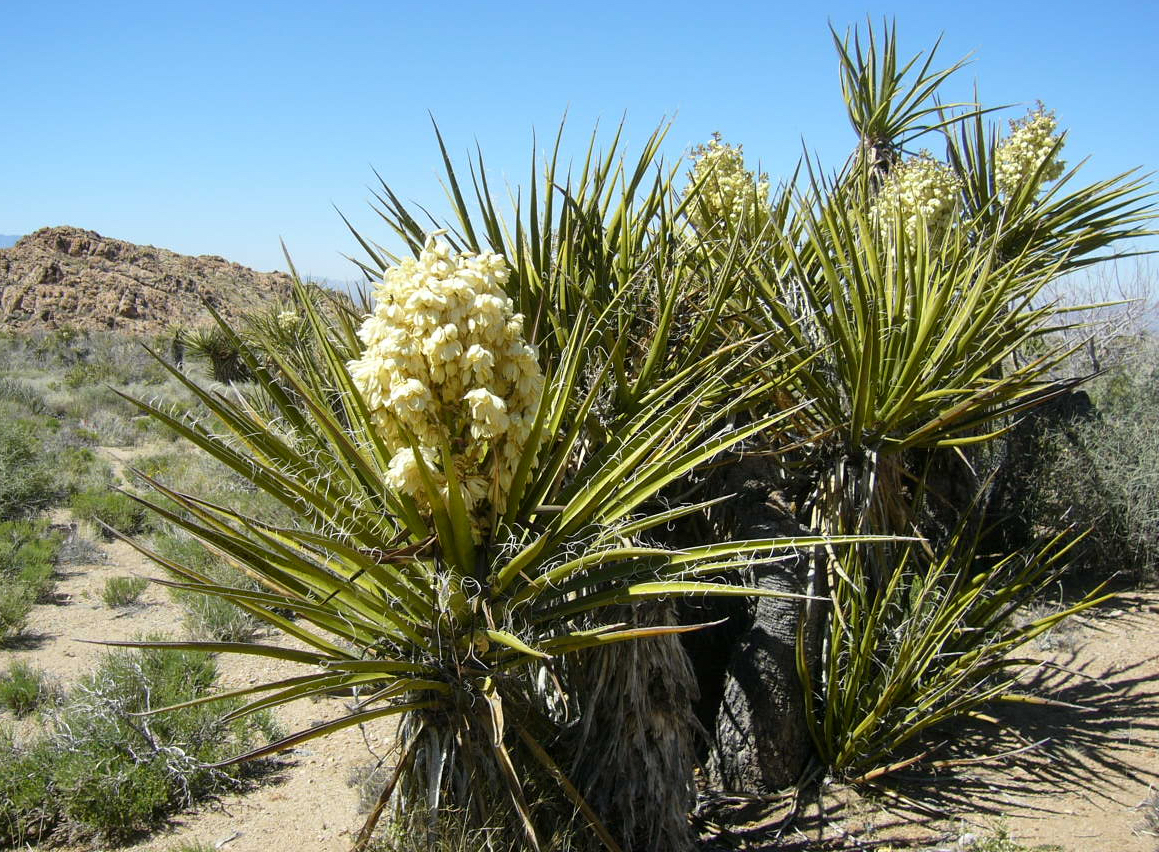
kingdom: Plantae
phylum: Tracheophyta
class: Liliopsida
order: Asparagales
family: Asparagaceae
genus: Yucca
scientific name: Yucca schidigera
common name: Mojave yucca
